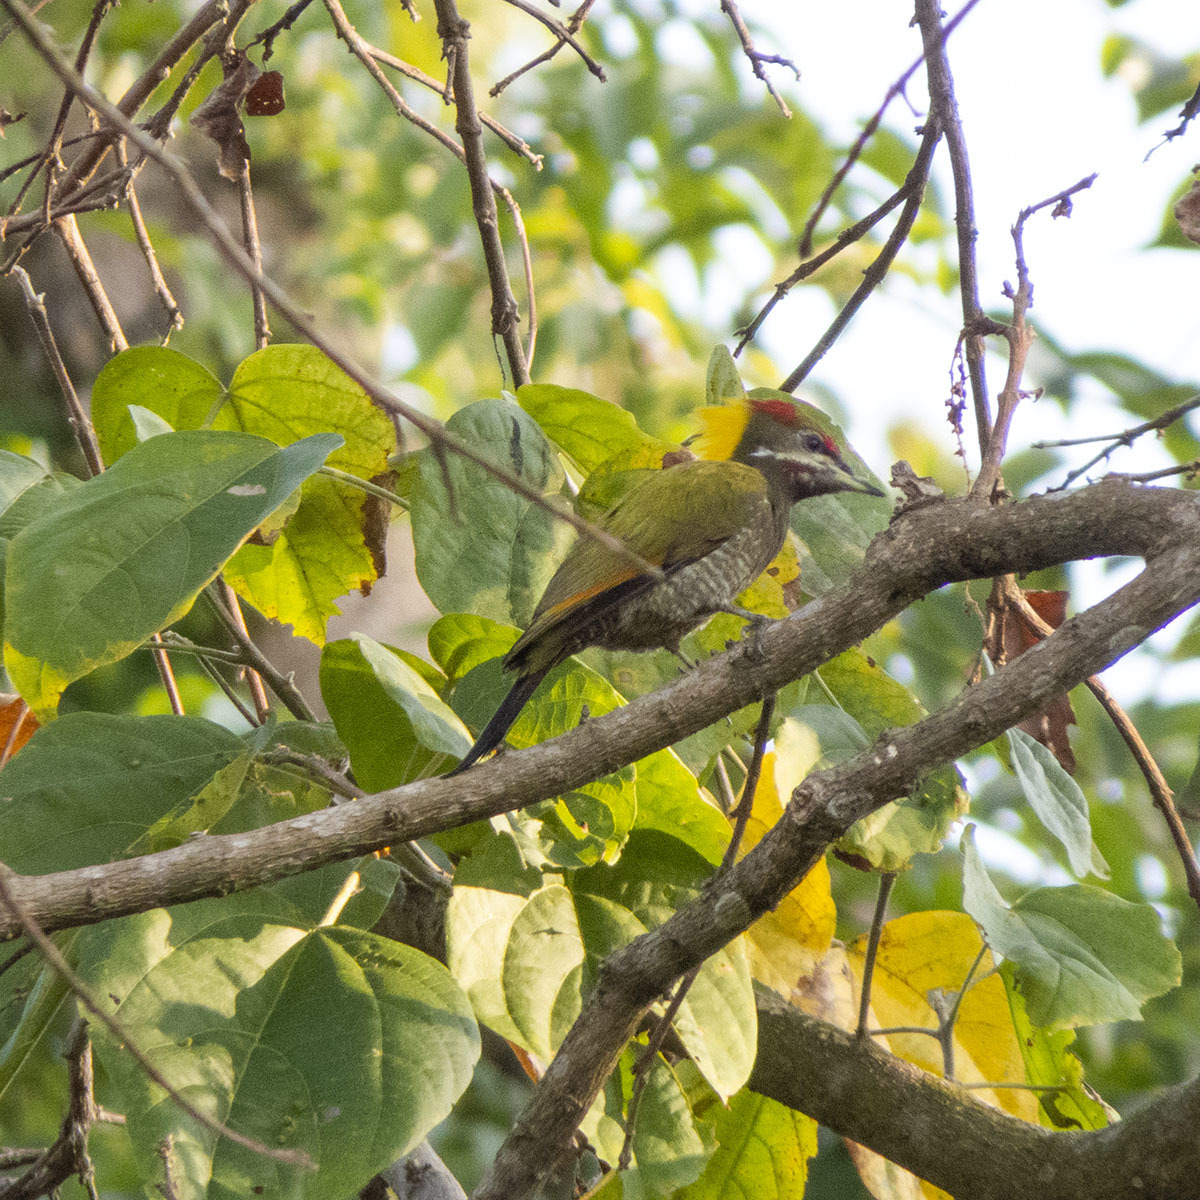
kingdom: Animalia
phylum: Chordata
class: Aves
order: Piciformes
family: Picidae
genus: Picus
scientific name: Picus chlorolophus
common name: Lesser yellownape
